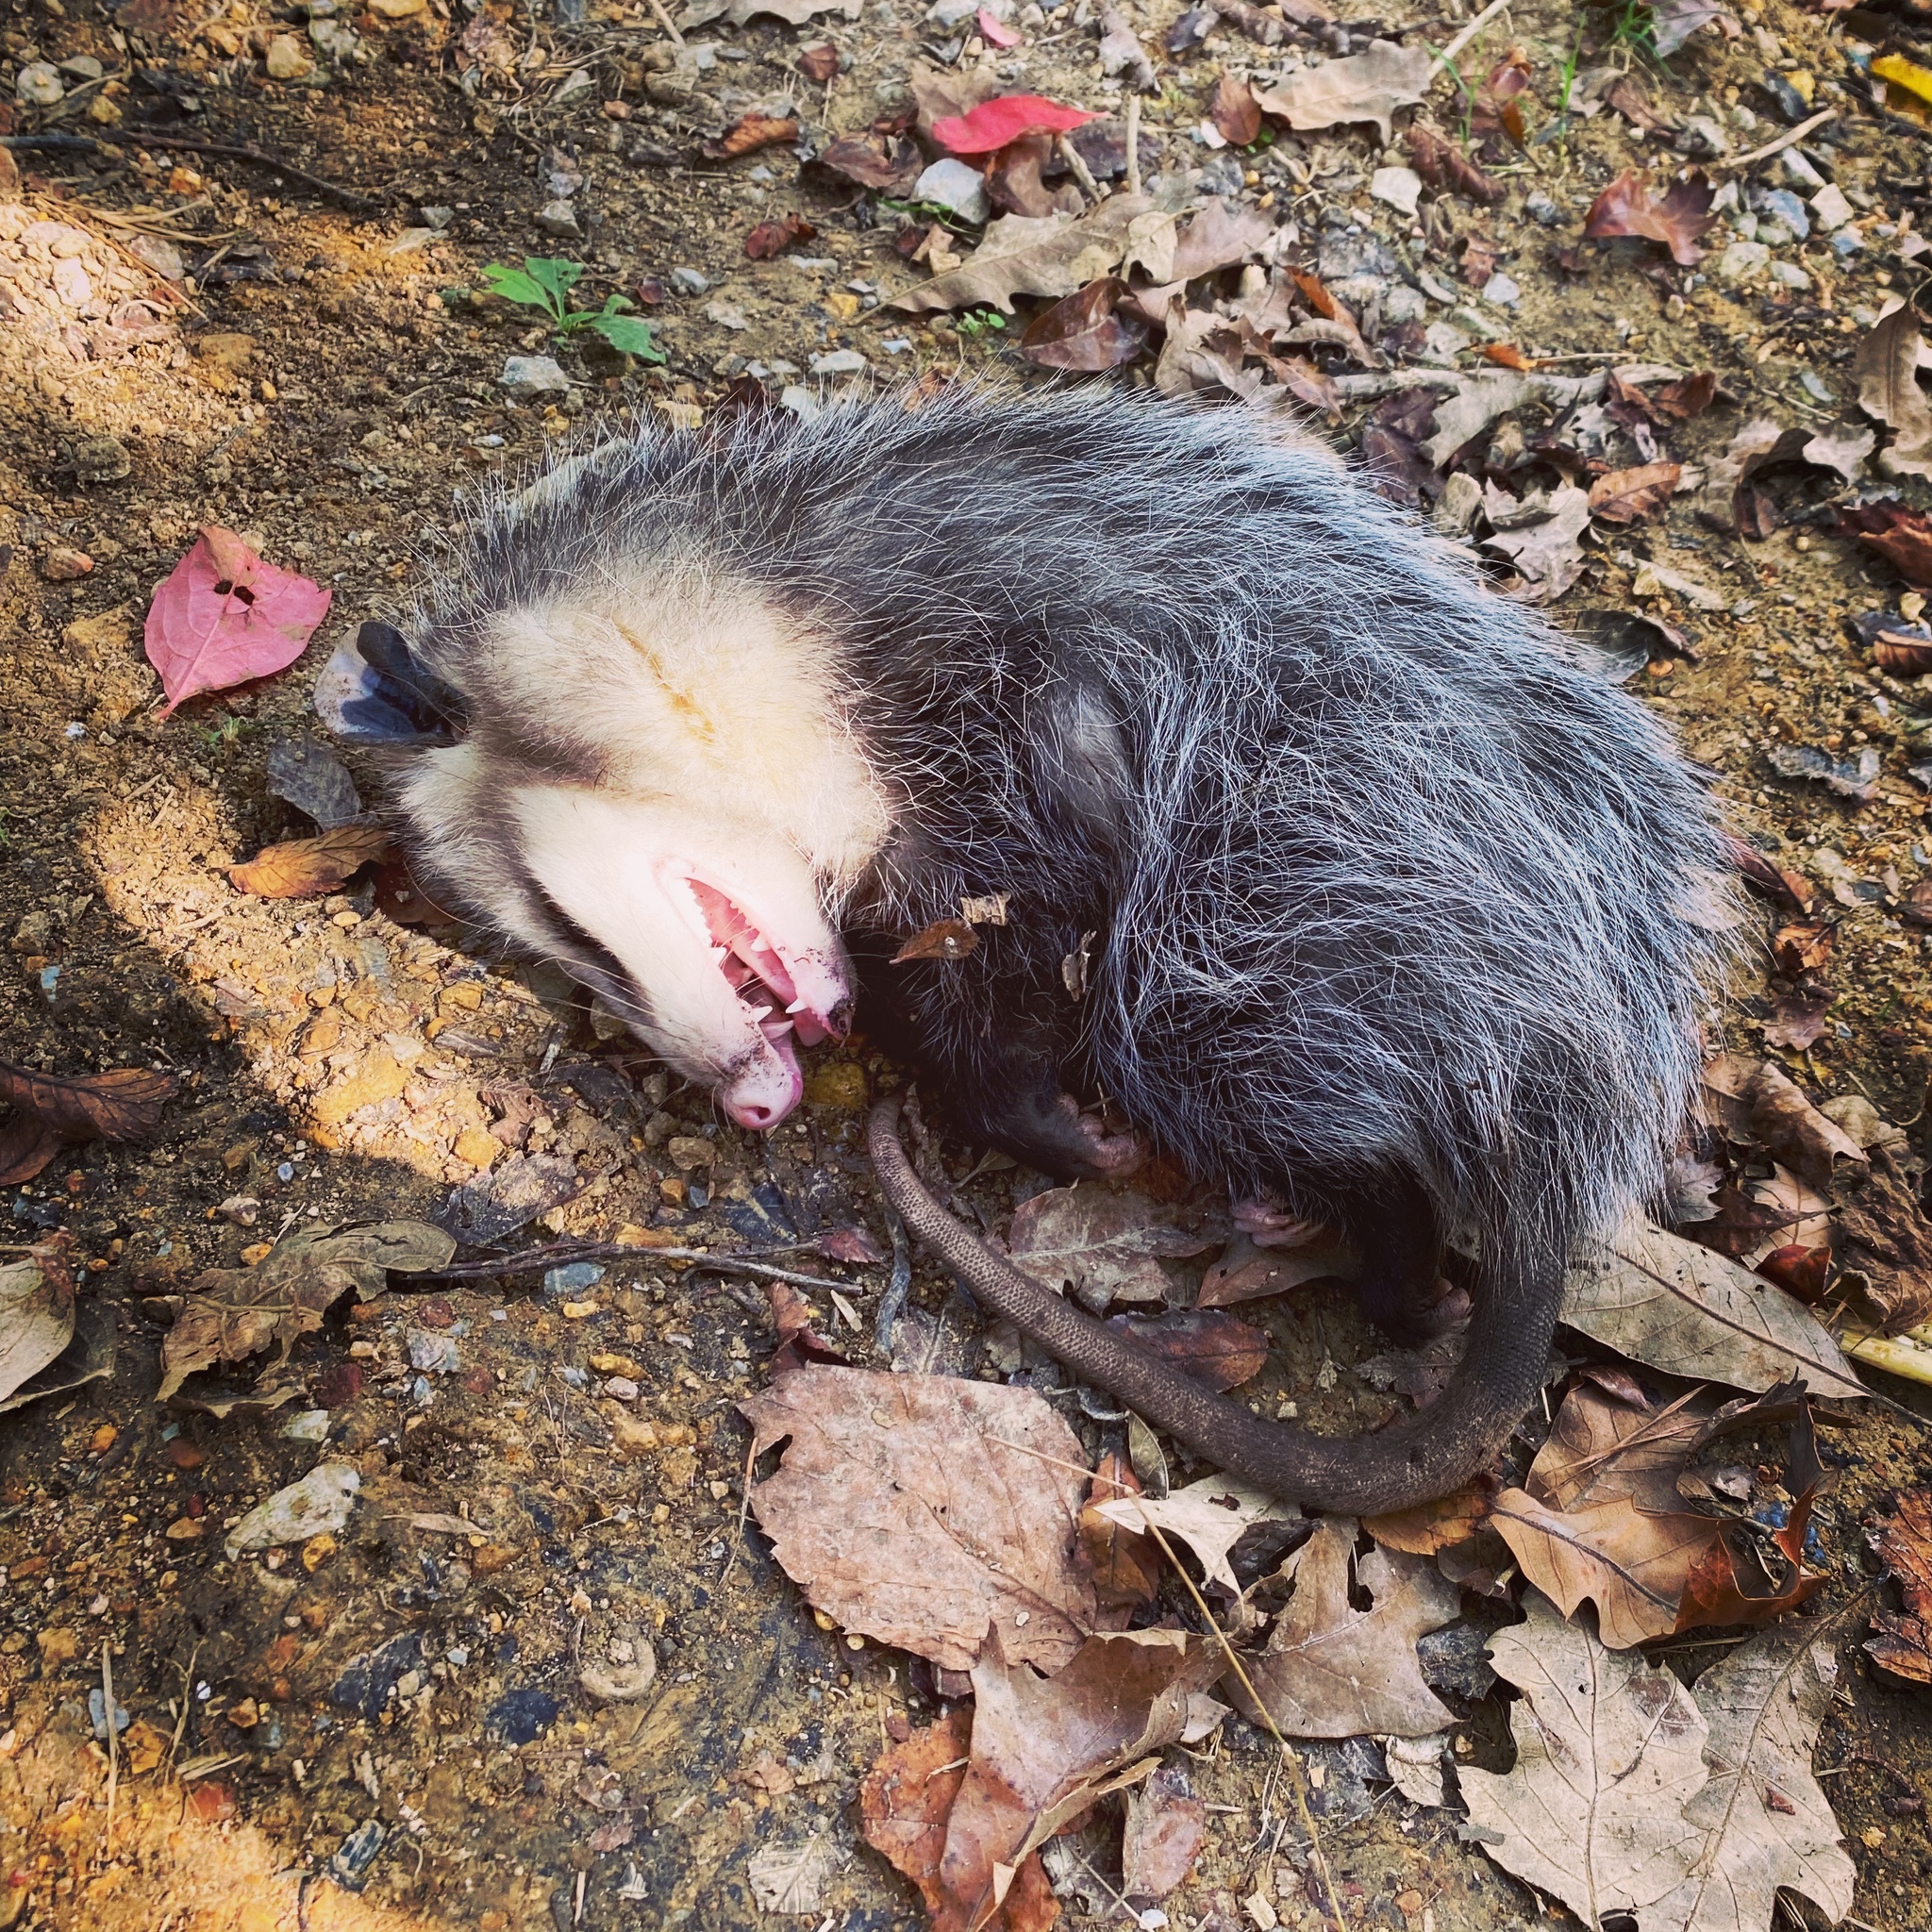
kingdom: Animalia
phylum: Chordata
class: Mammalia
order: Didelphimorphia
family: Didelphidae
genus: Didelphis
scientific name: Didelphis virginiana
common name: Virginia opossum
